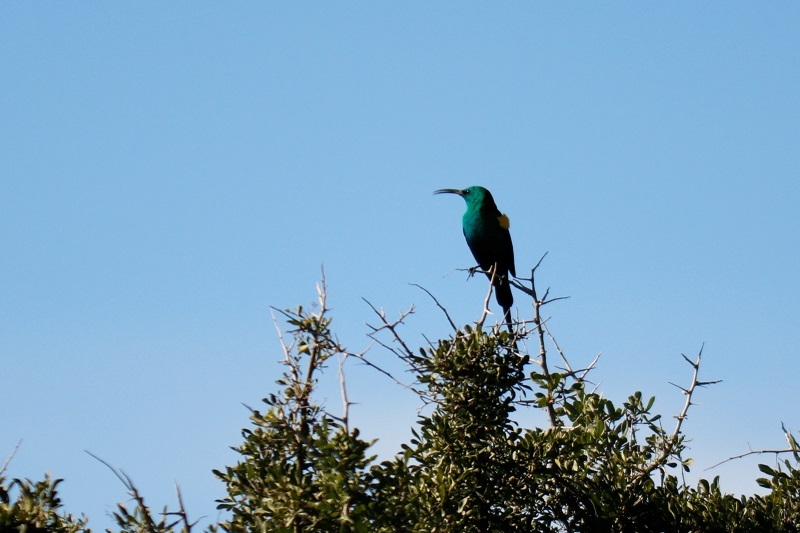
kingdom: Animalia
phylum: Chordata
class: Aves
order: Passeriformes
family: Nectariniidae
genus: Nectarinia
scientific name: Nectarinia famosa
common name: Malachite sunbird
